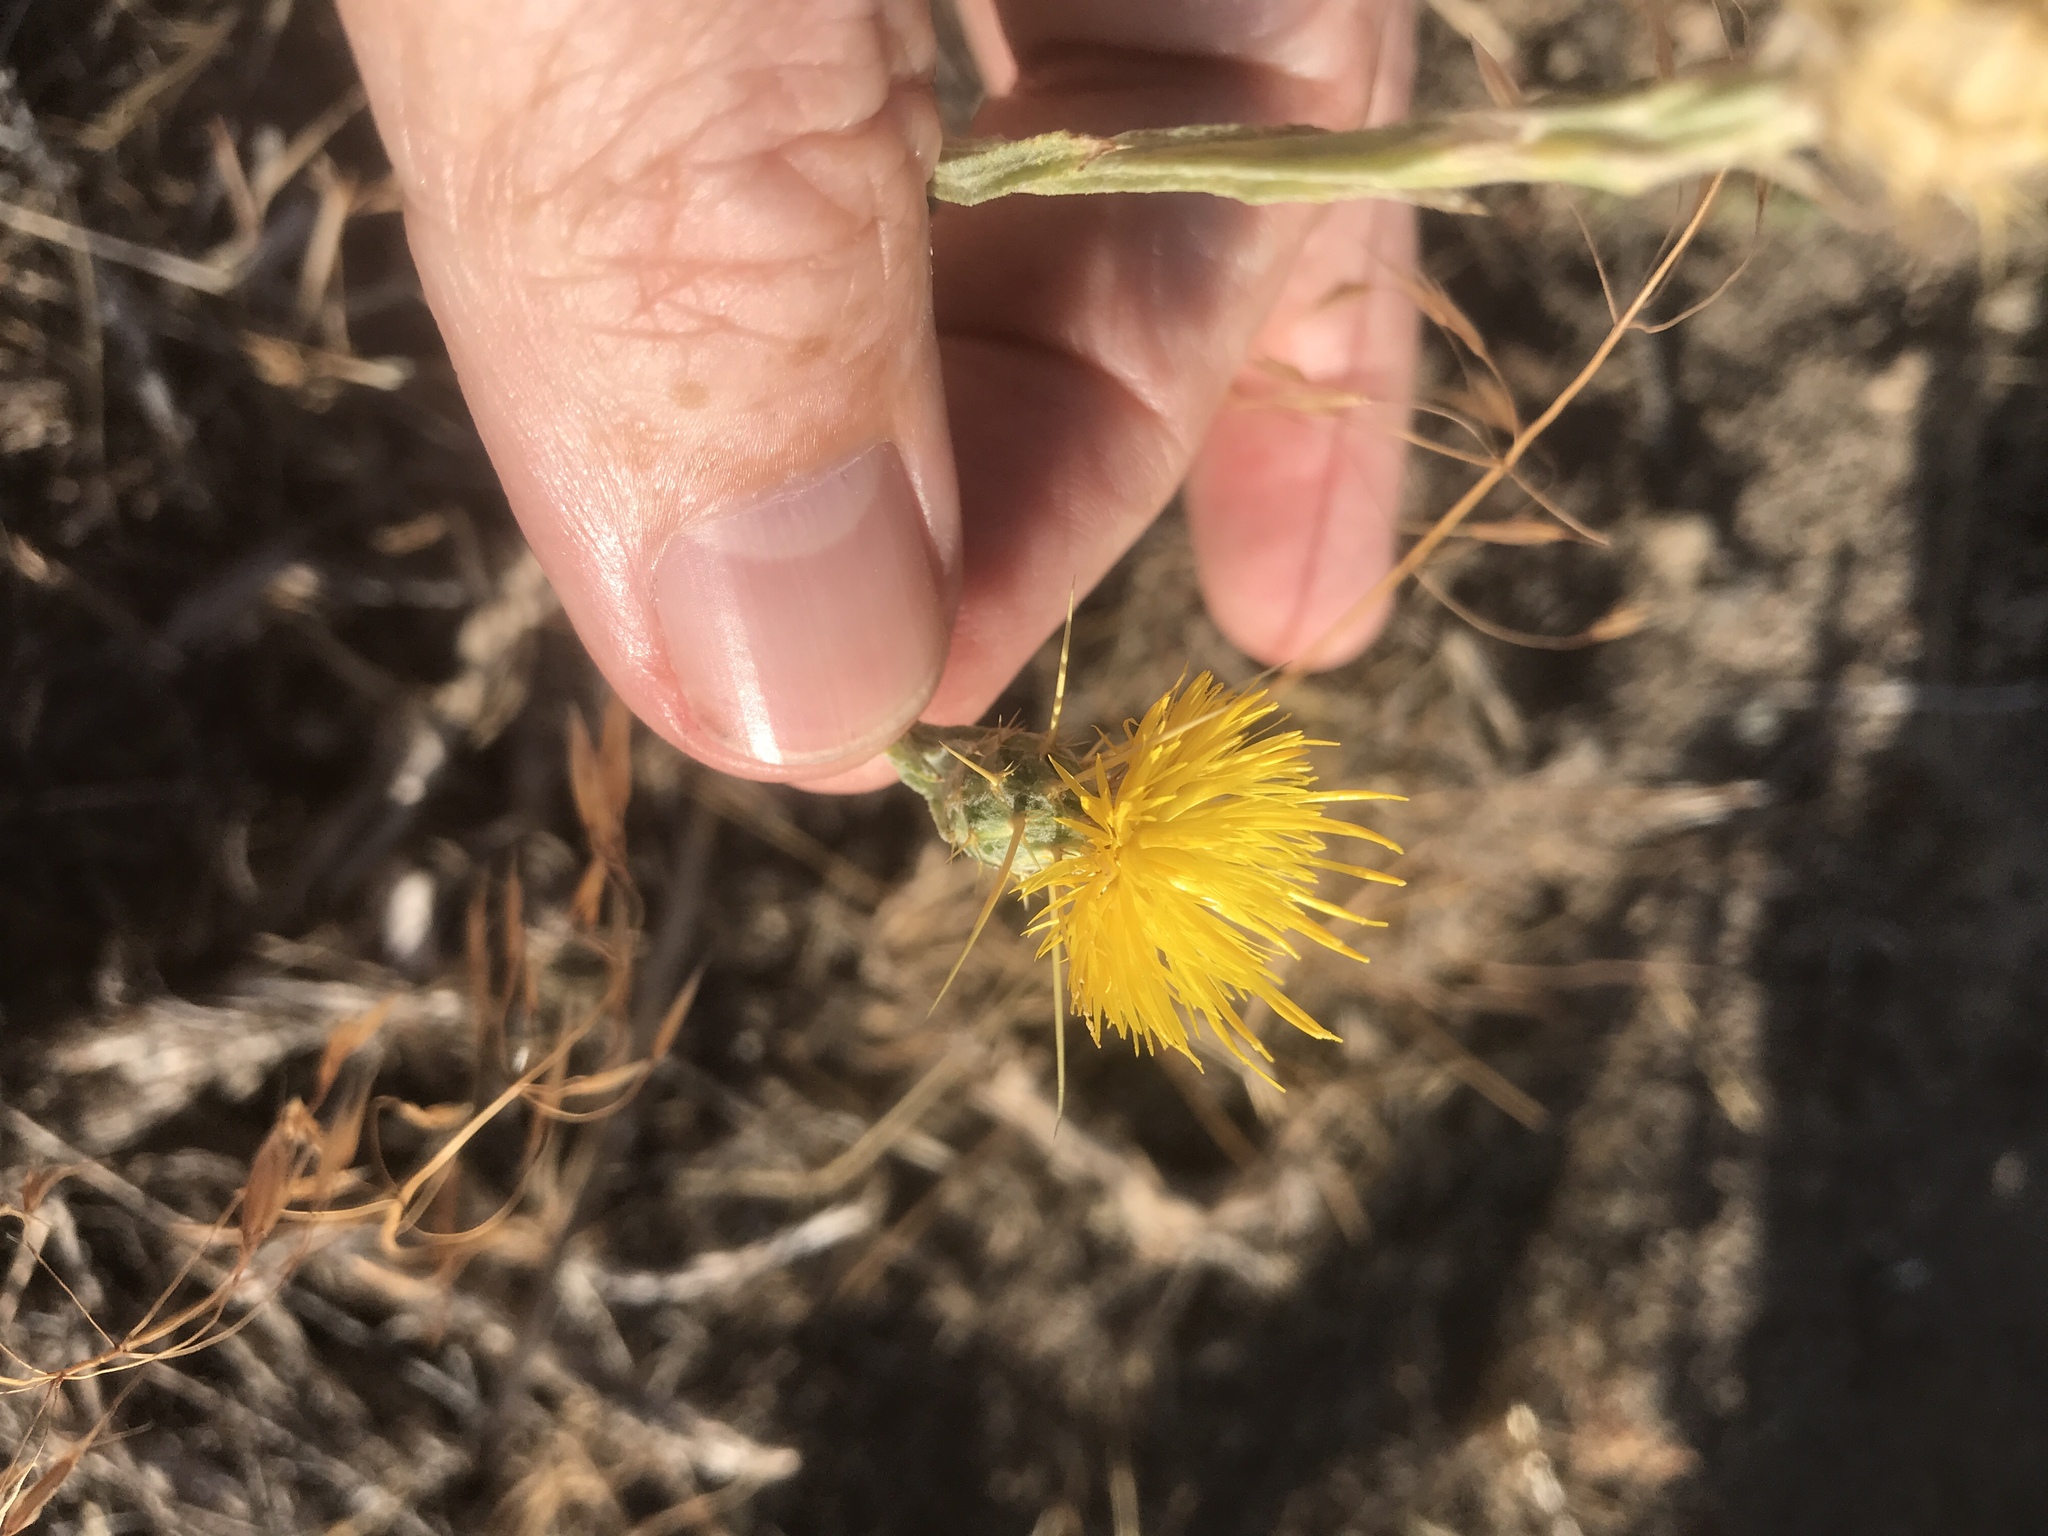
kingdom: Plantae
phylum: Tracheophyta
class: Magnoliopsida
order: Asterales
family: Asteraceae
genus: Centaurea
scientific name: Centaurea solstitialis
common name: Yellow star-thistle
